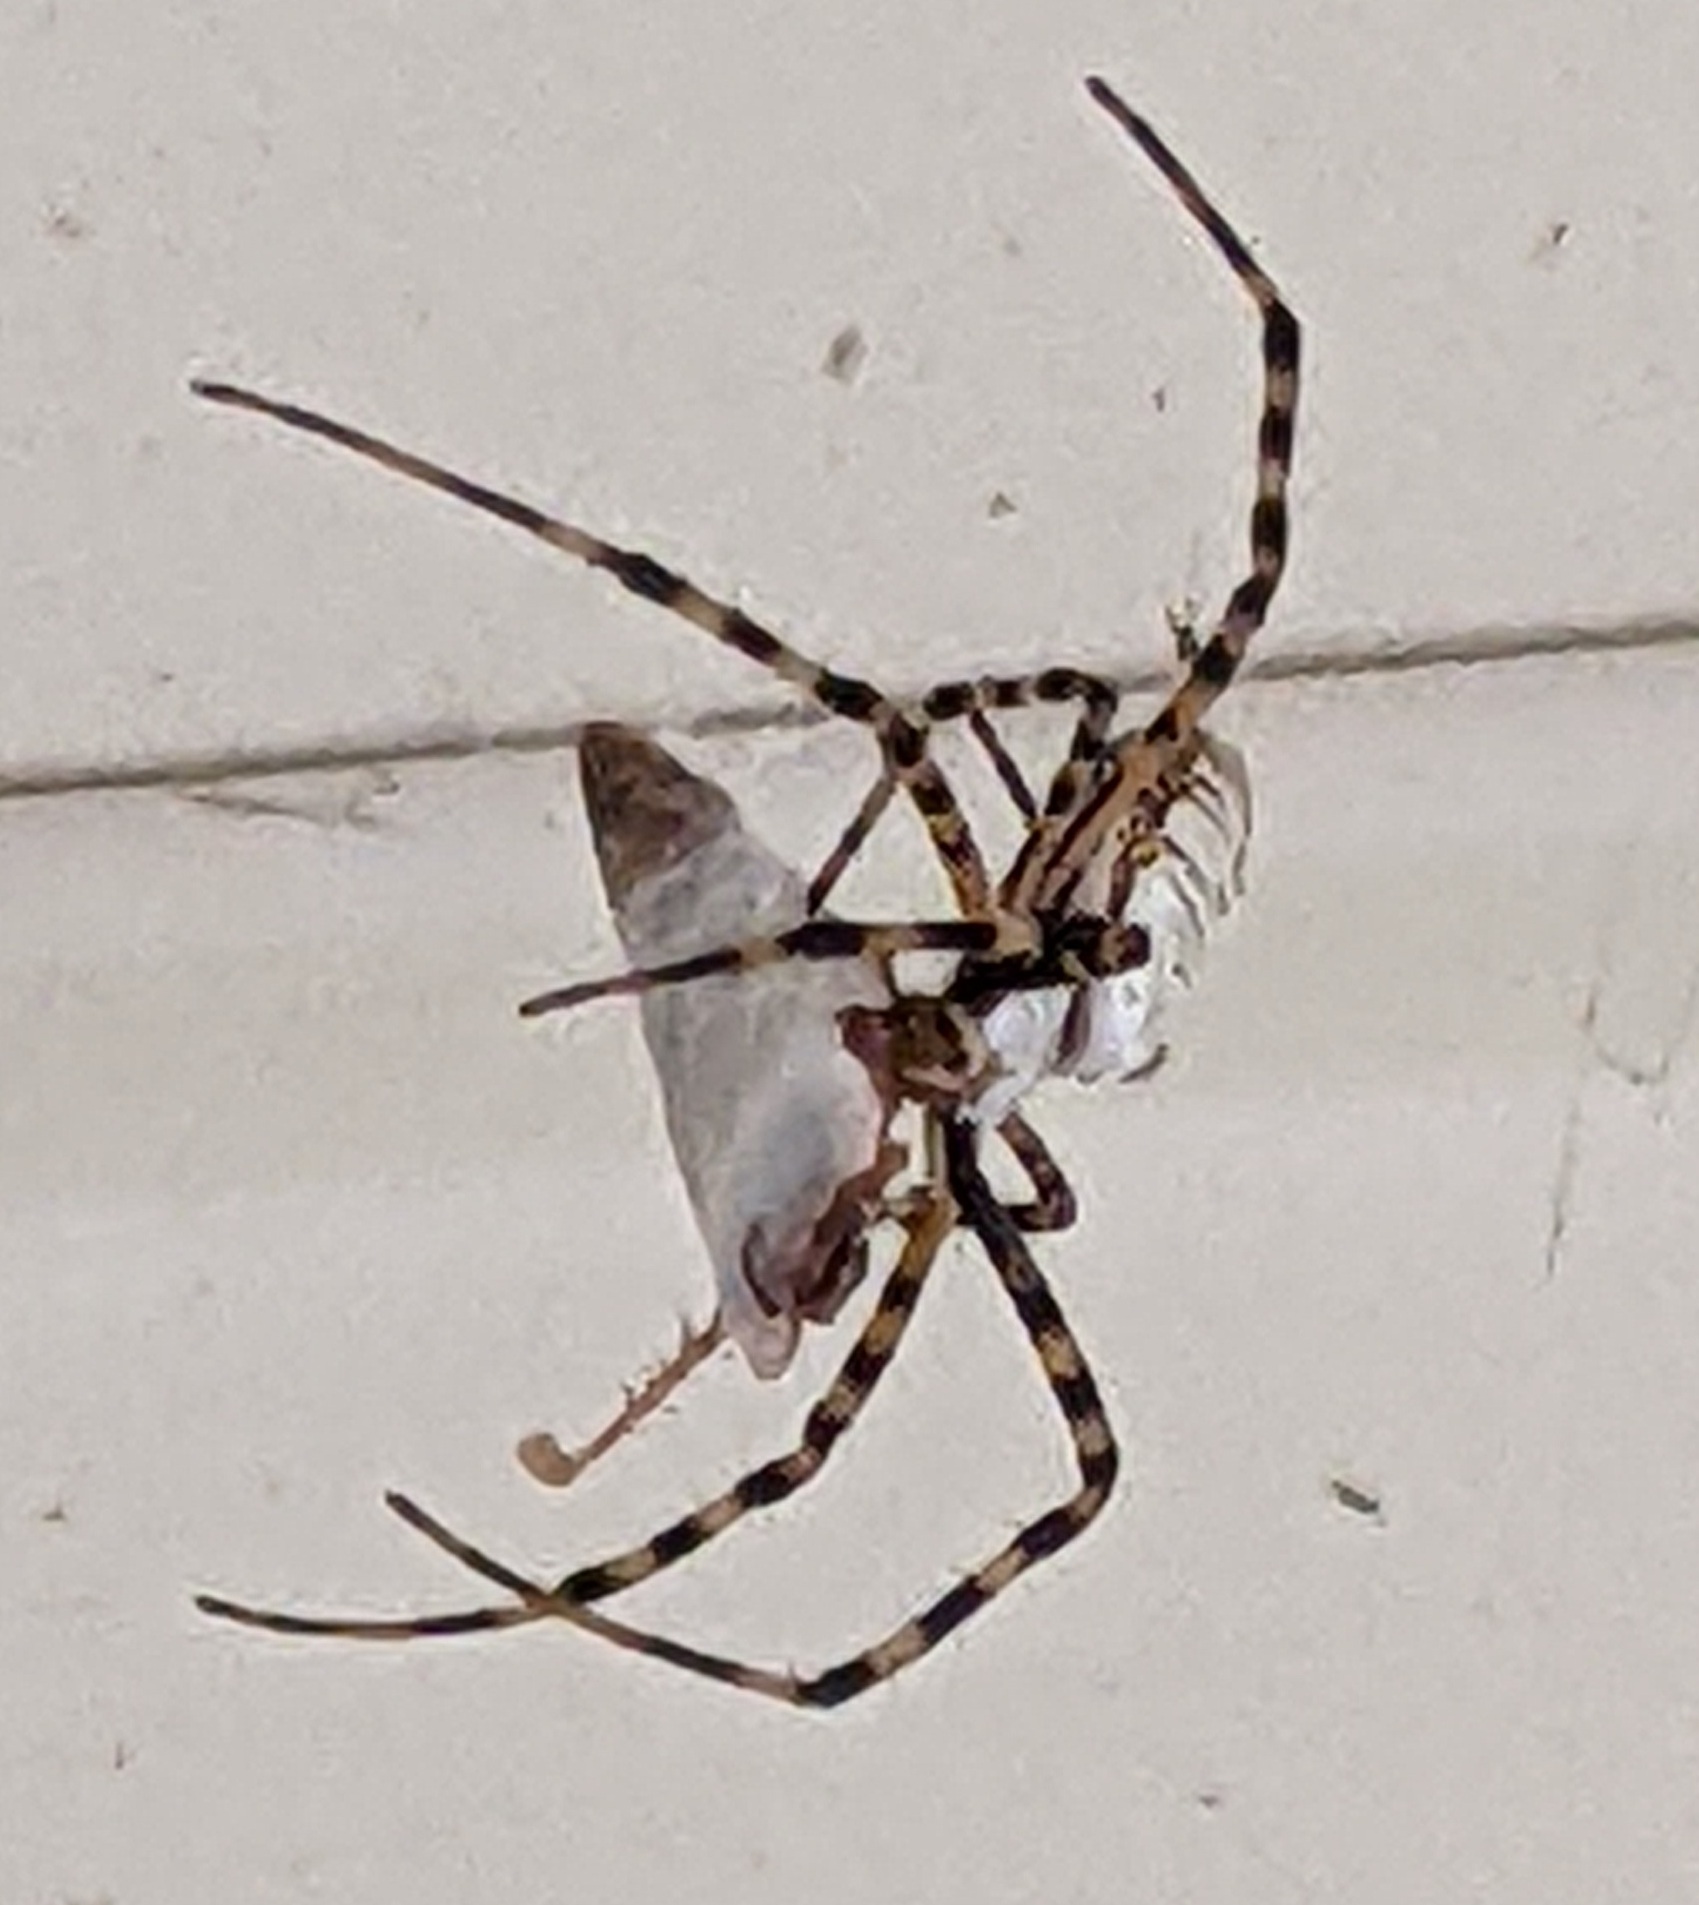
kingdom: Animalia
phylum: Arthropoda
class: Arachnida
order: Araneae
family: Araneidae
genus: Argiope
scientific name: Argiope trifasciata
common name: Banded garden spider
